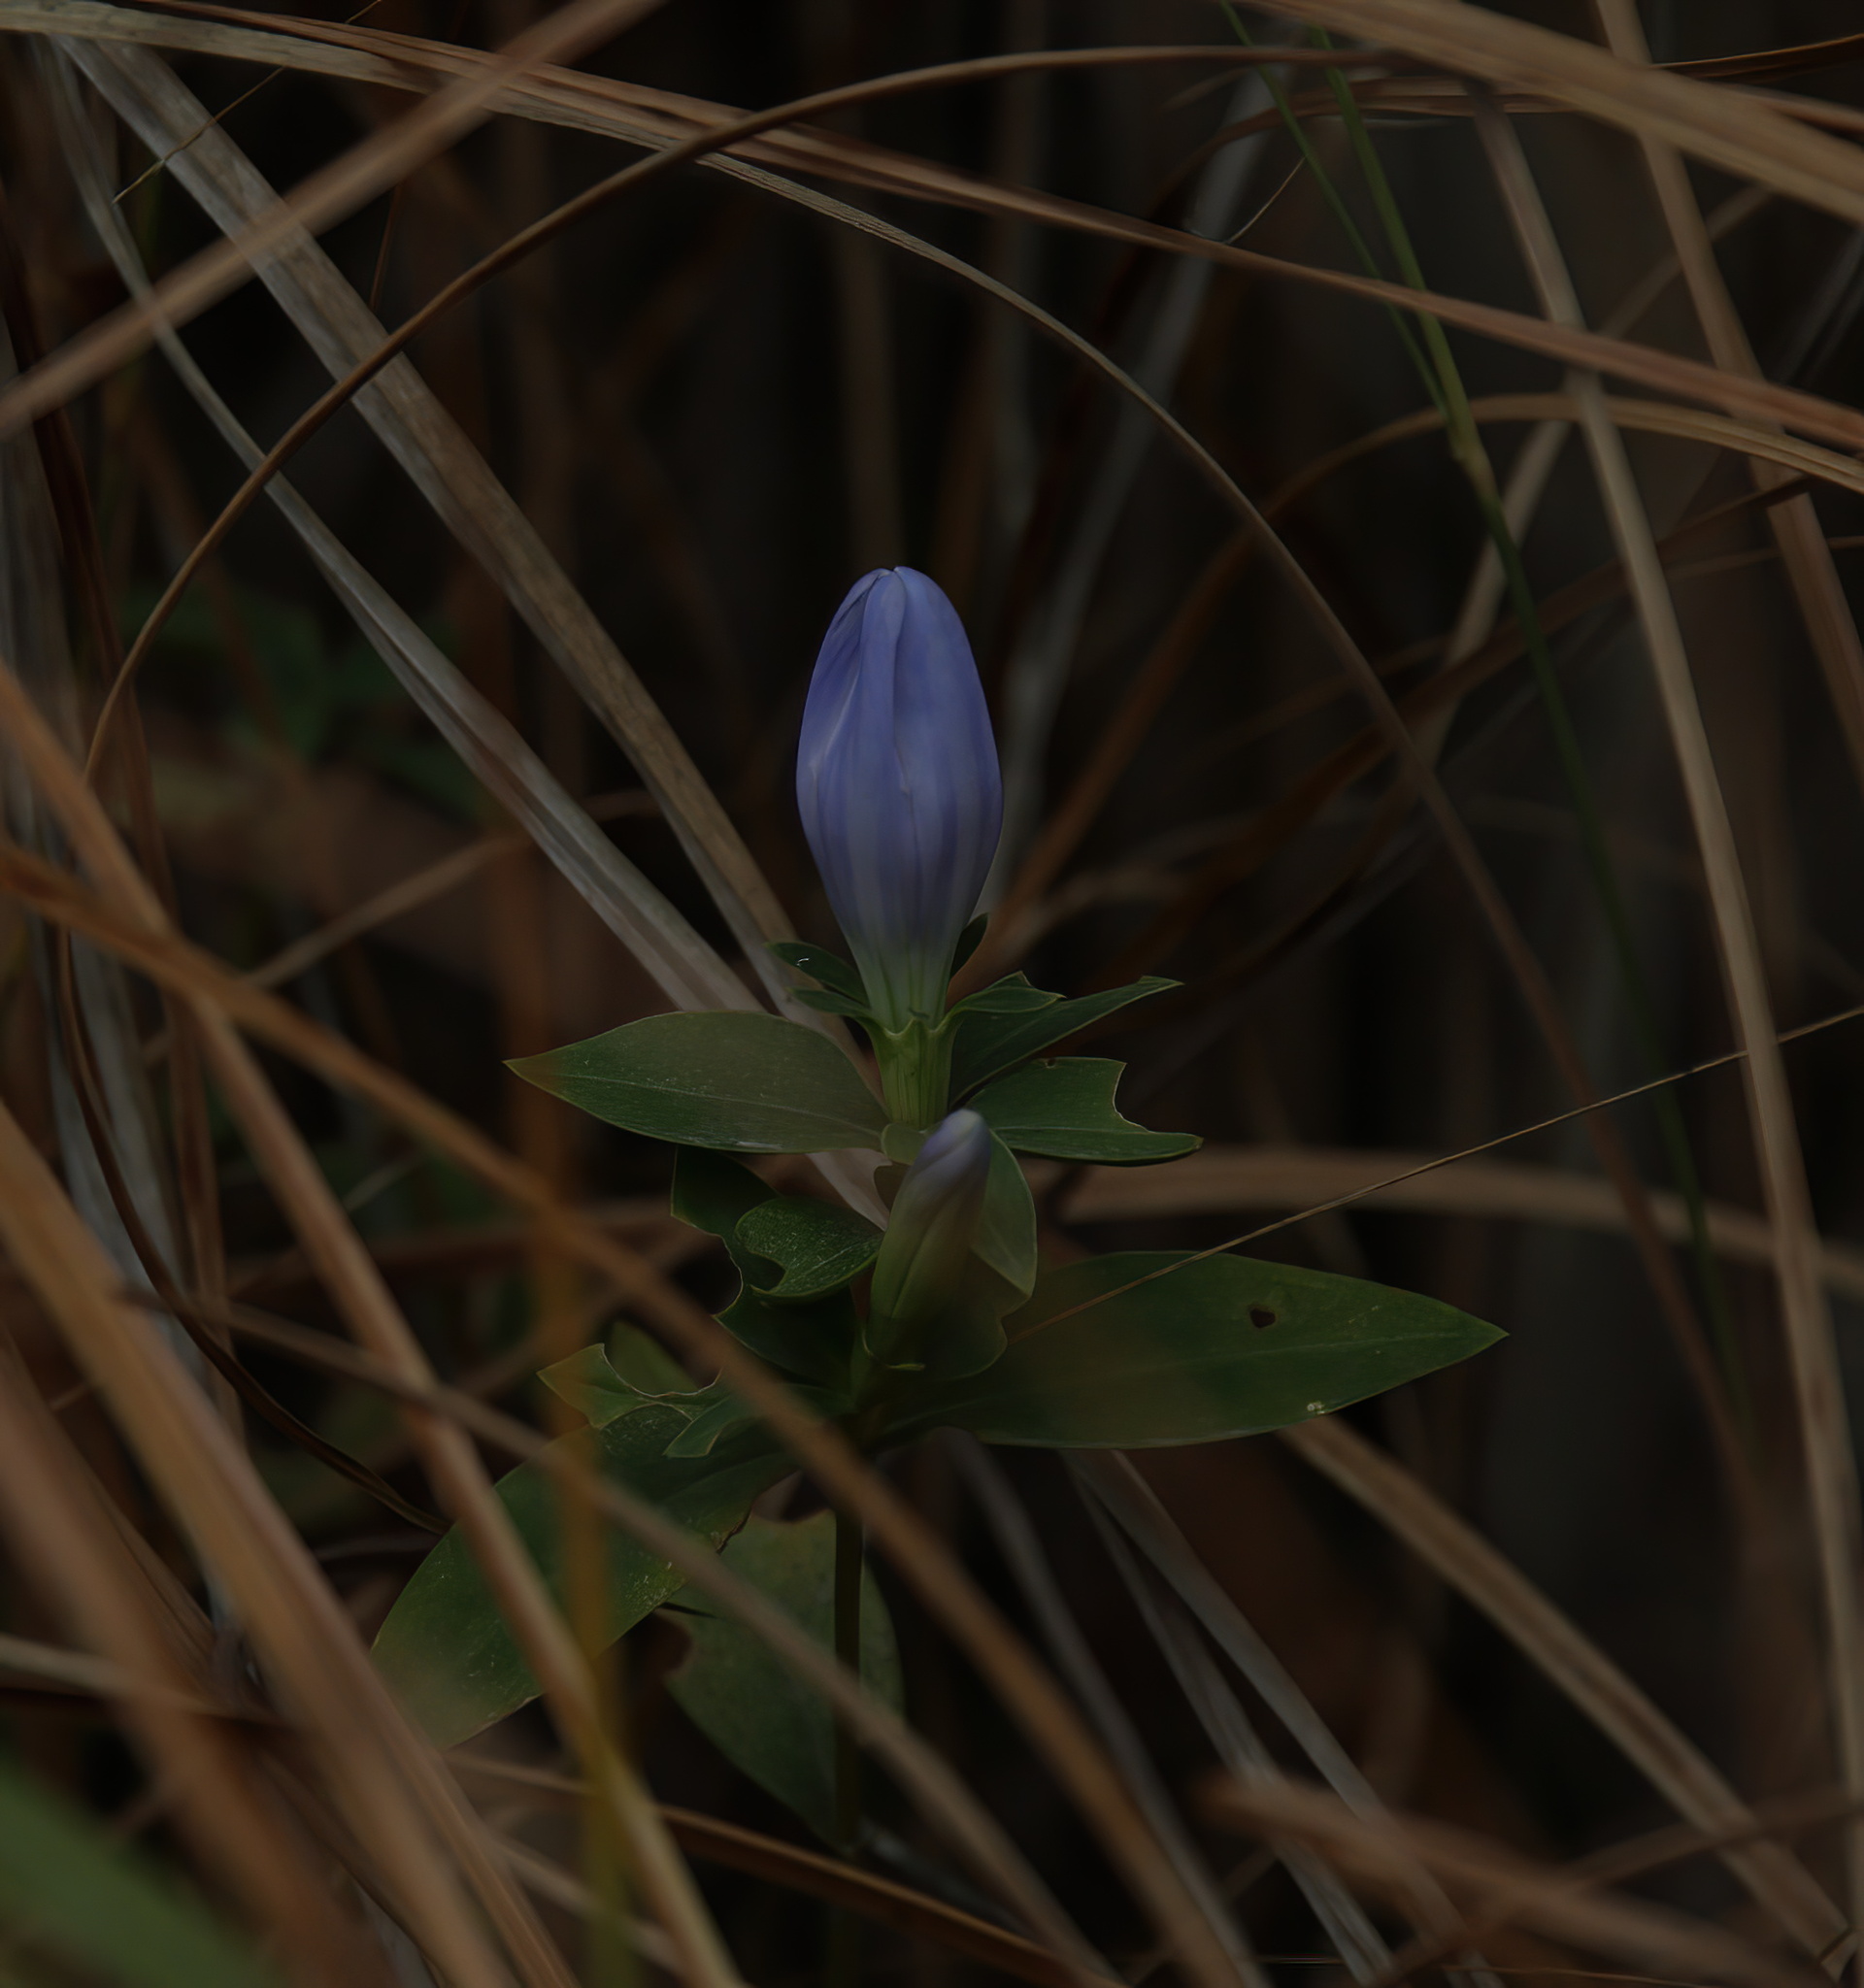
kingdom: Plantae
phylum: Tracheophyta
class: Magnoliopsida
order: Gentianales
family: Gentianaceae
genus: Gentiana
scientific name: Gentiana saponaria
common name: Soapwort gentian
